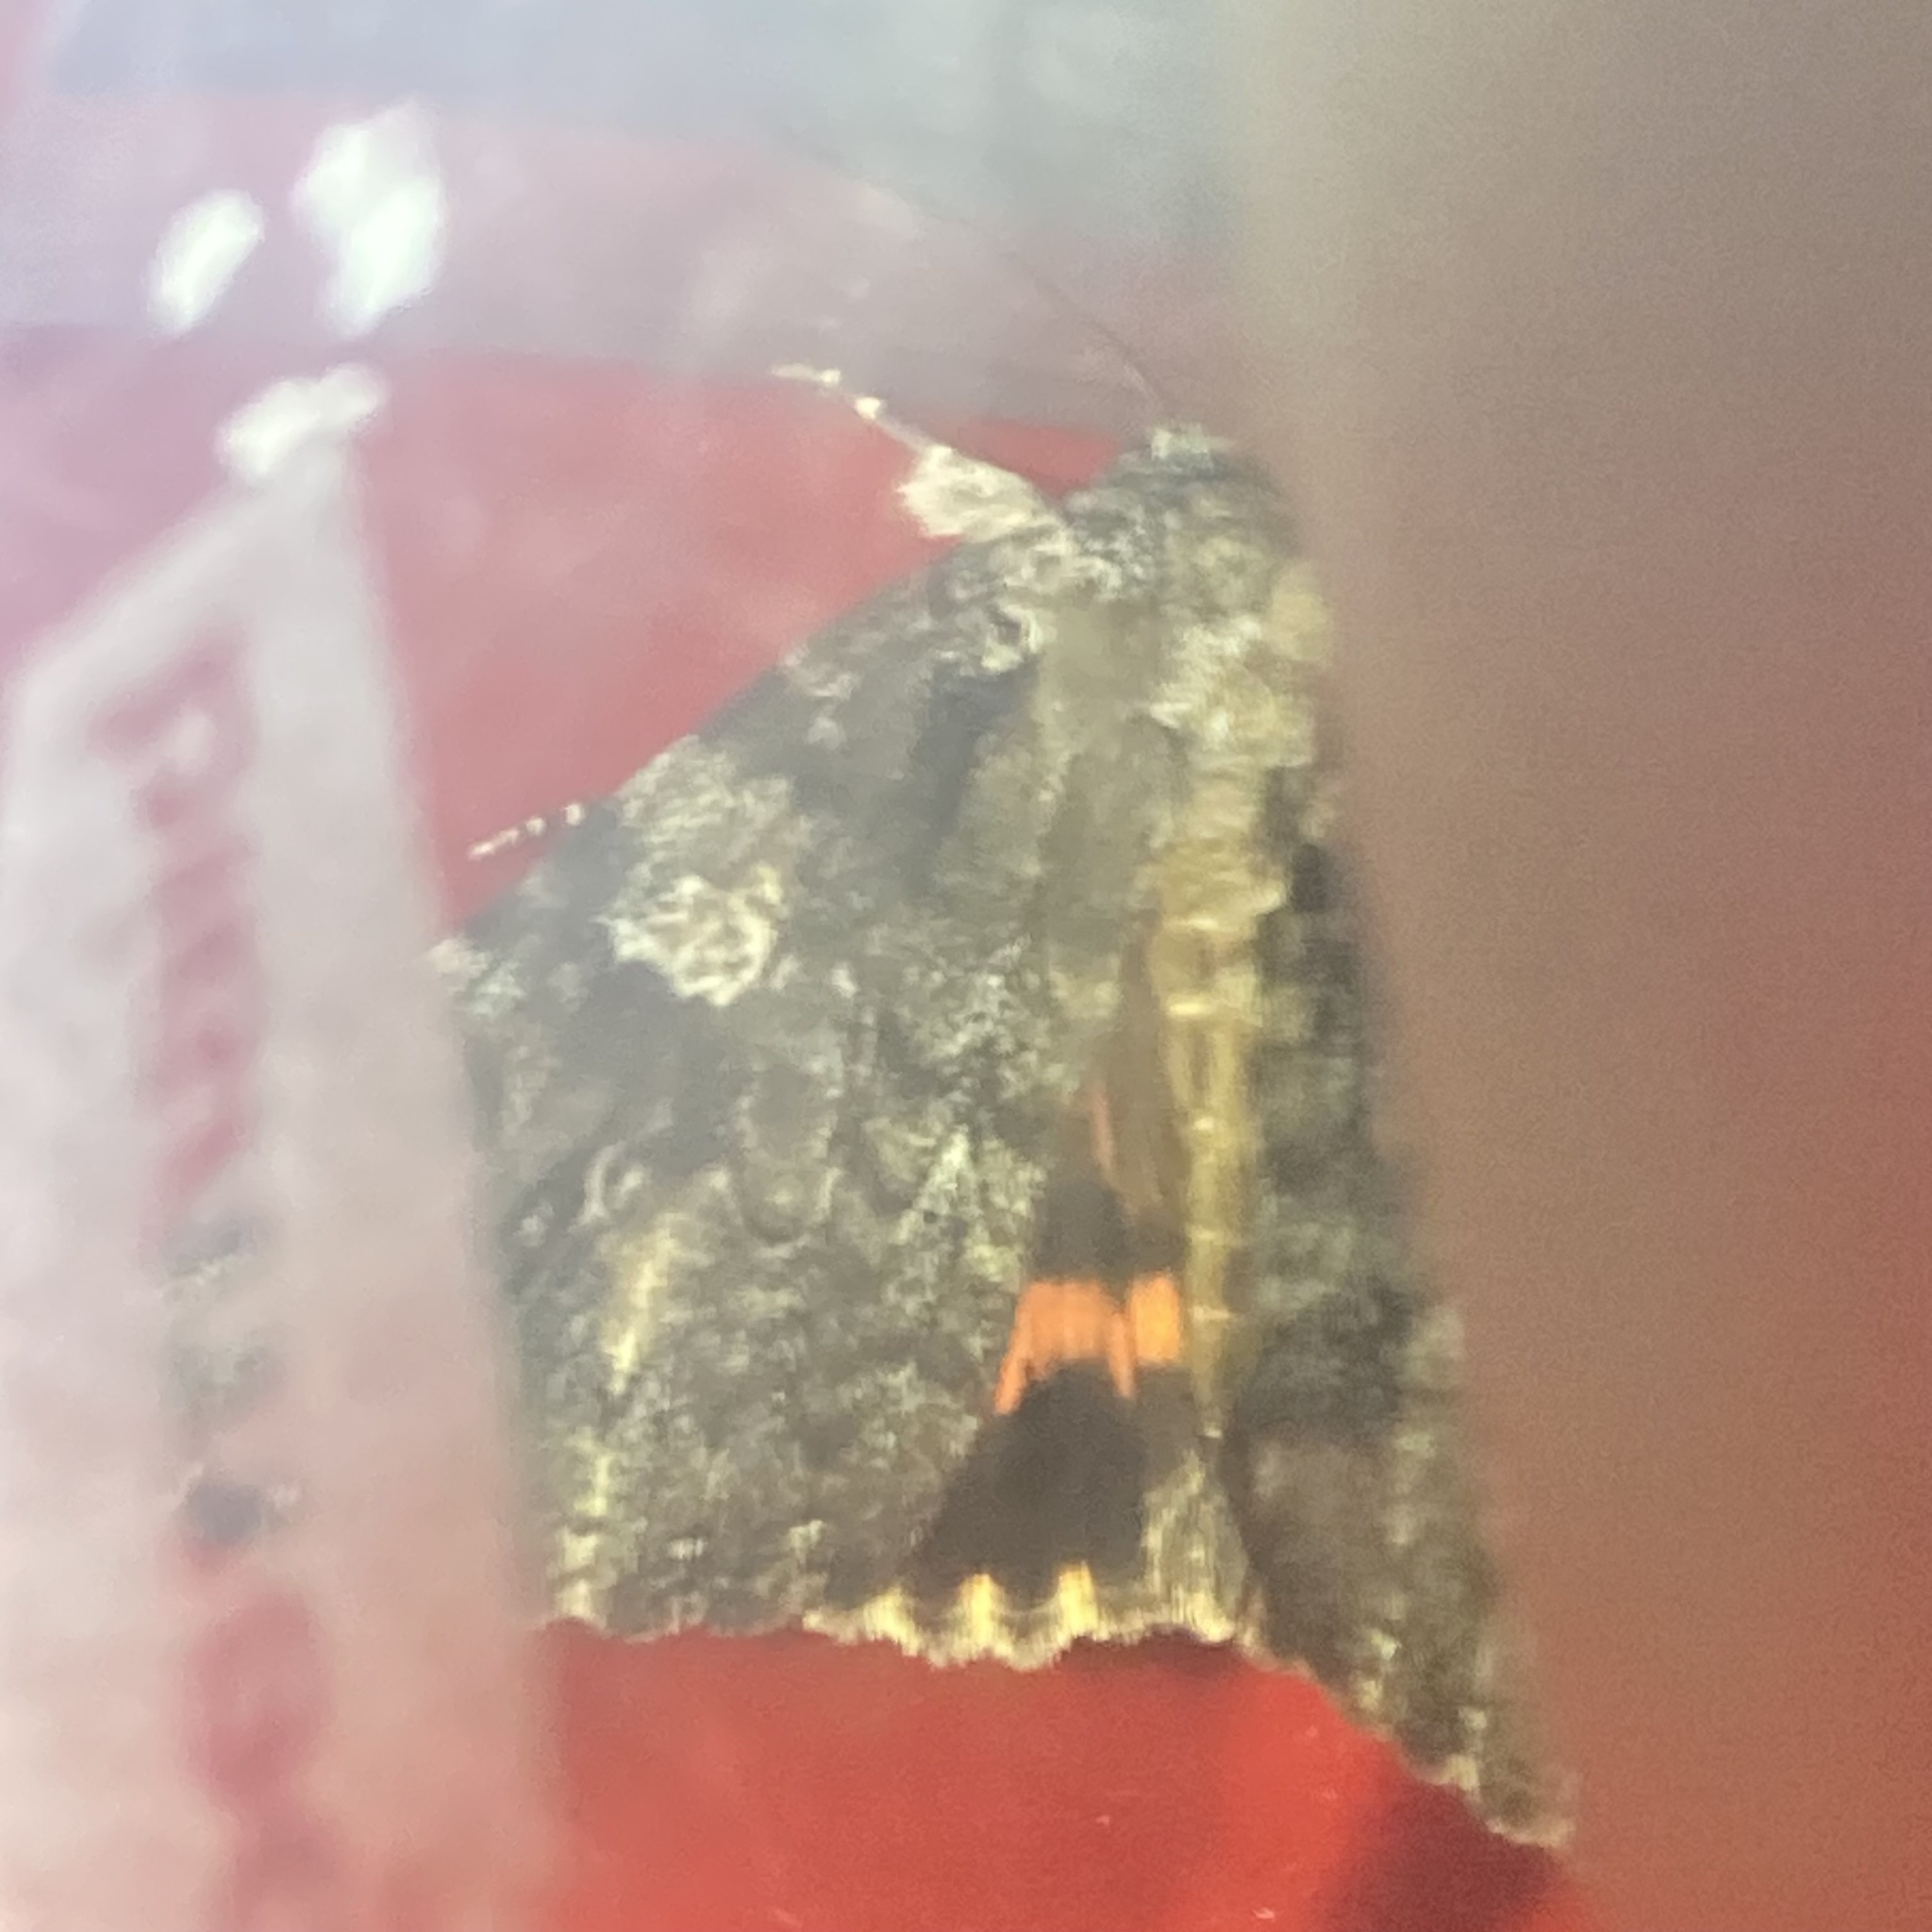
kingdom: Animalia
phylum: Arthropoda
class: Insecta
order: Lepidoptera
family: Erebidae
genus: Catocala
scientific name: Catocala ilia
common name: Ilia underwing
